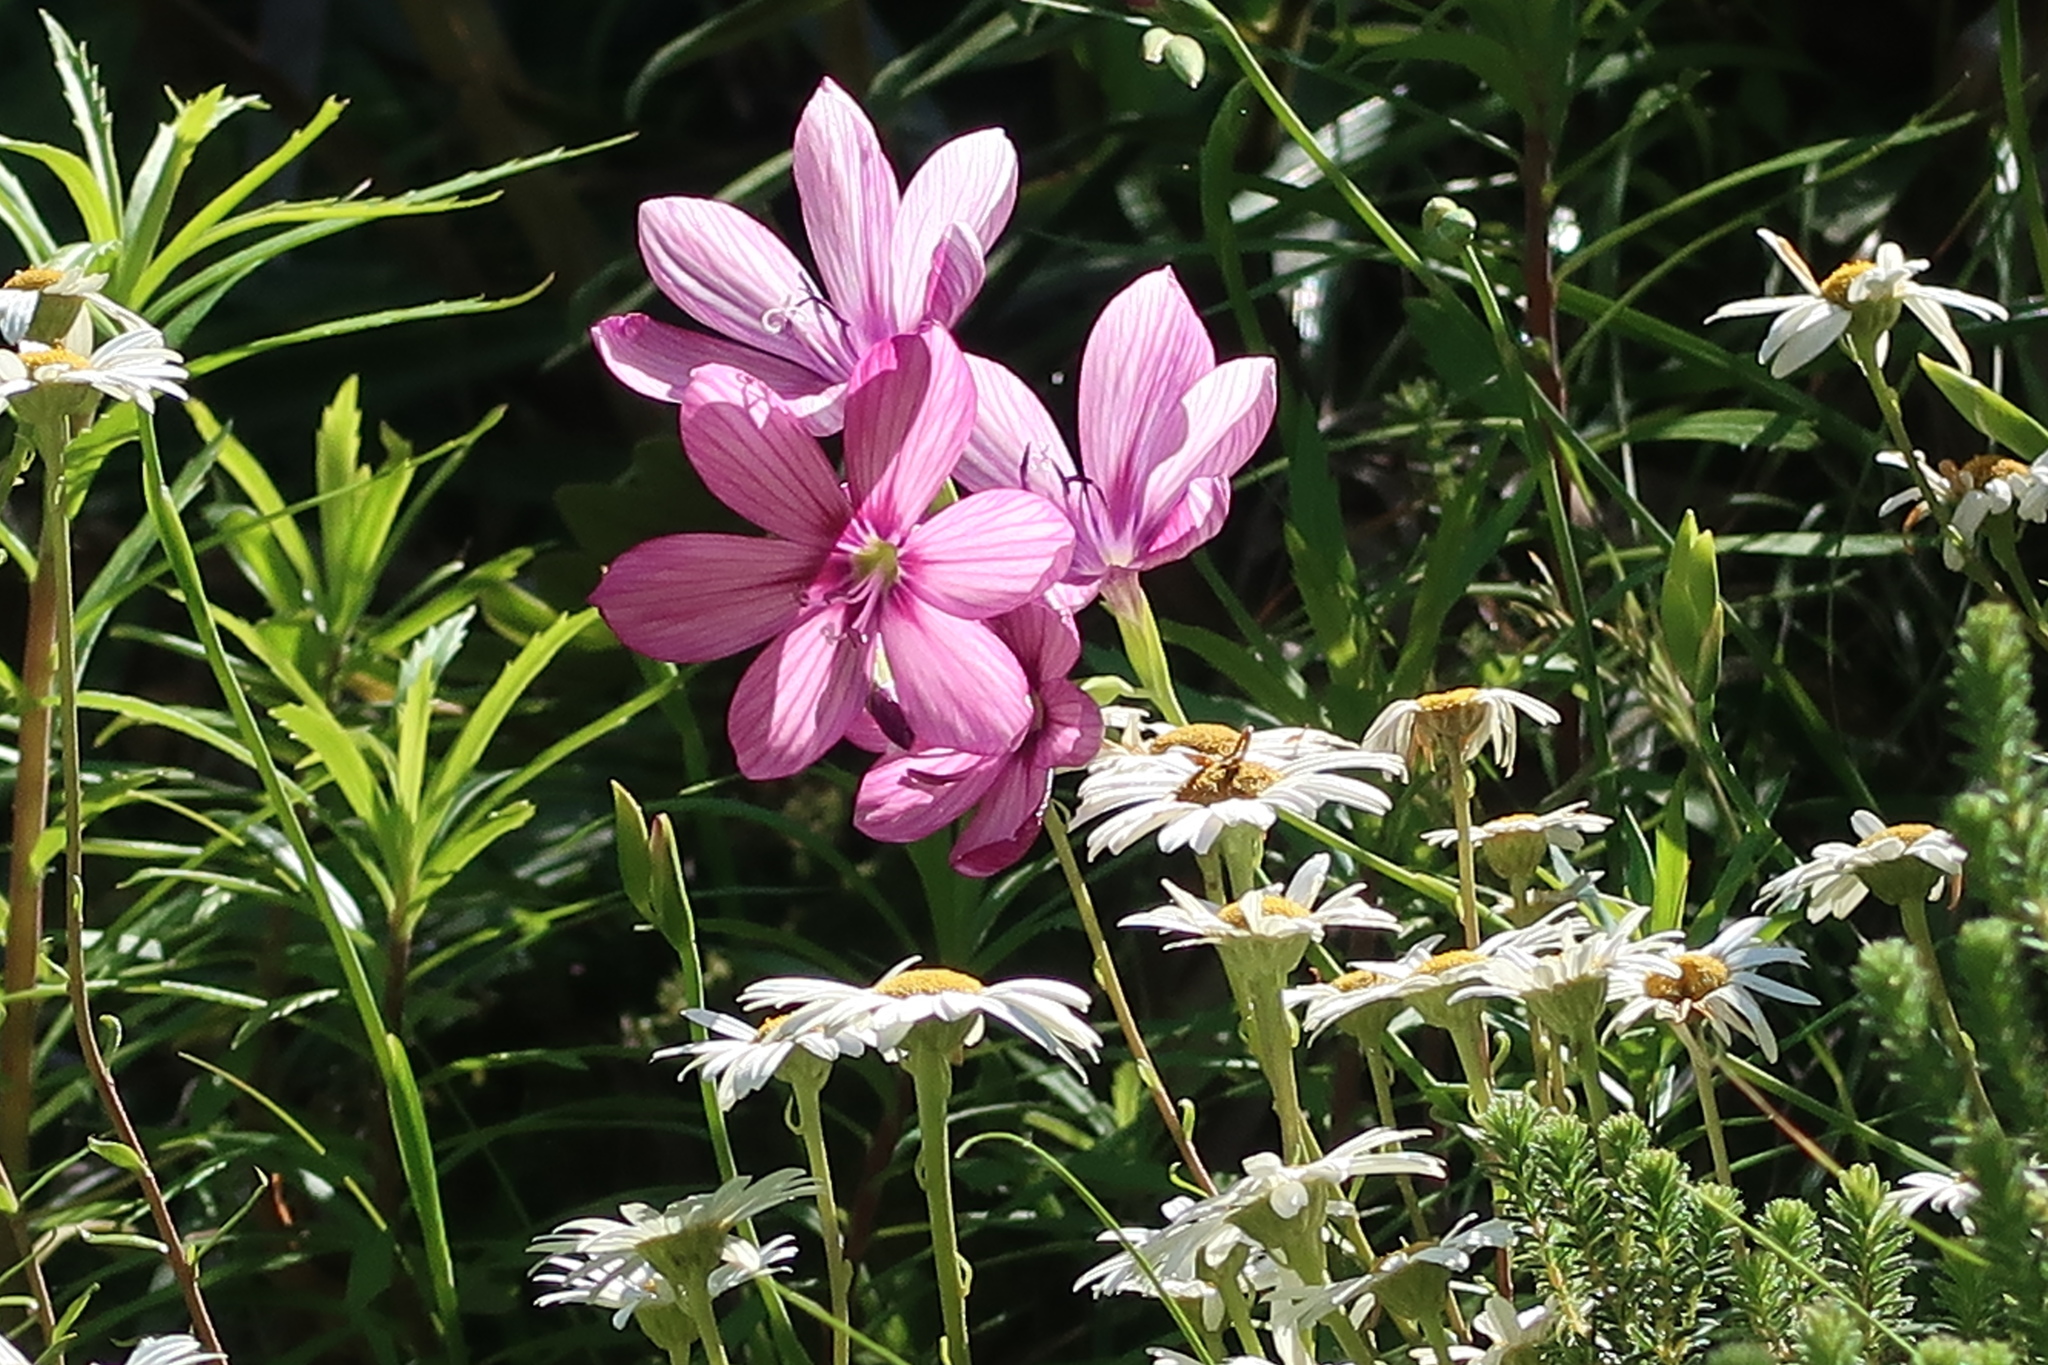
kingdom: Plantae
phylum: Tracheophyta
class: Liliopsida
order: Asparagales
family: Iridaceae
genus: Geissorhiza
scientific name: Geissorhiza outeniquensis
